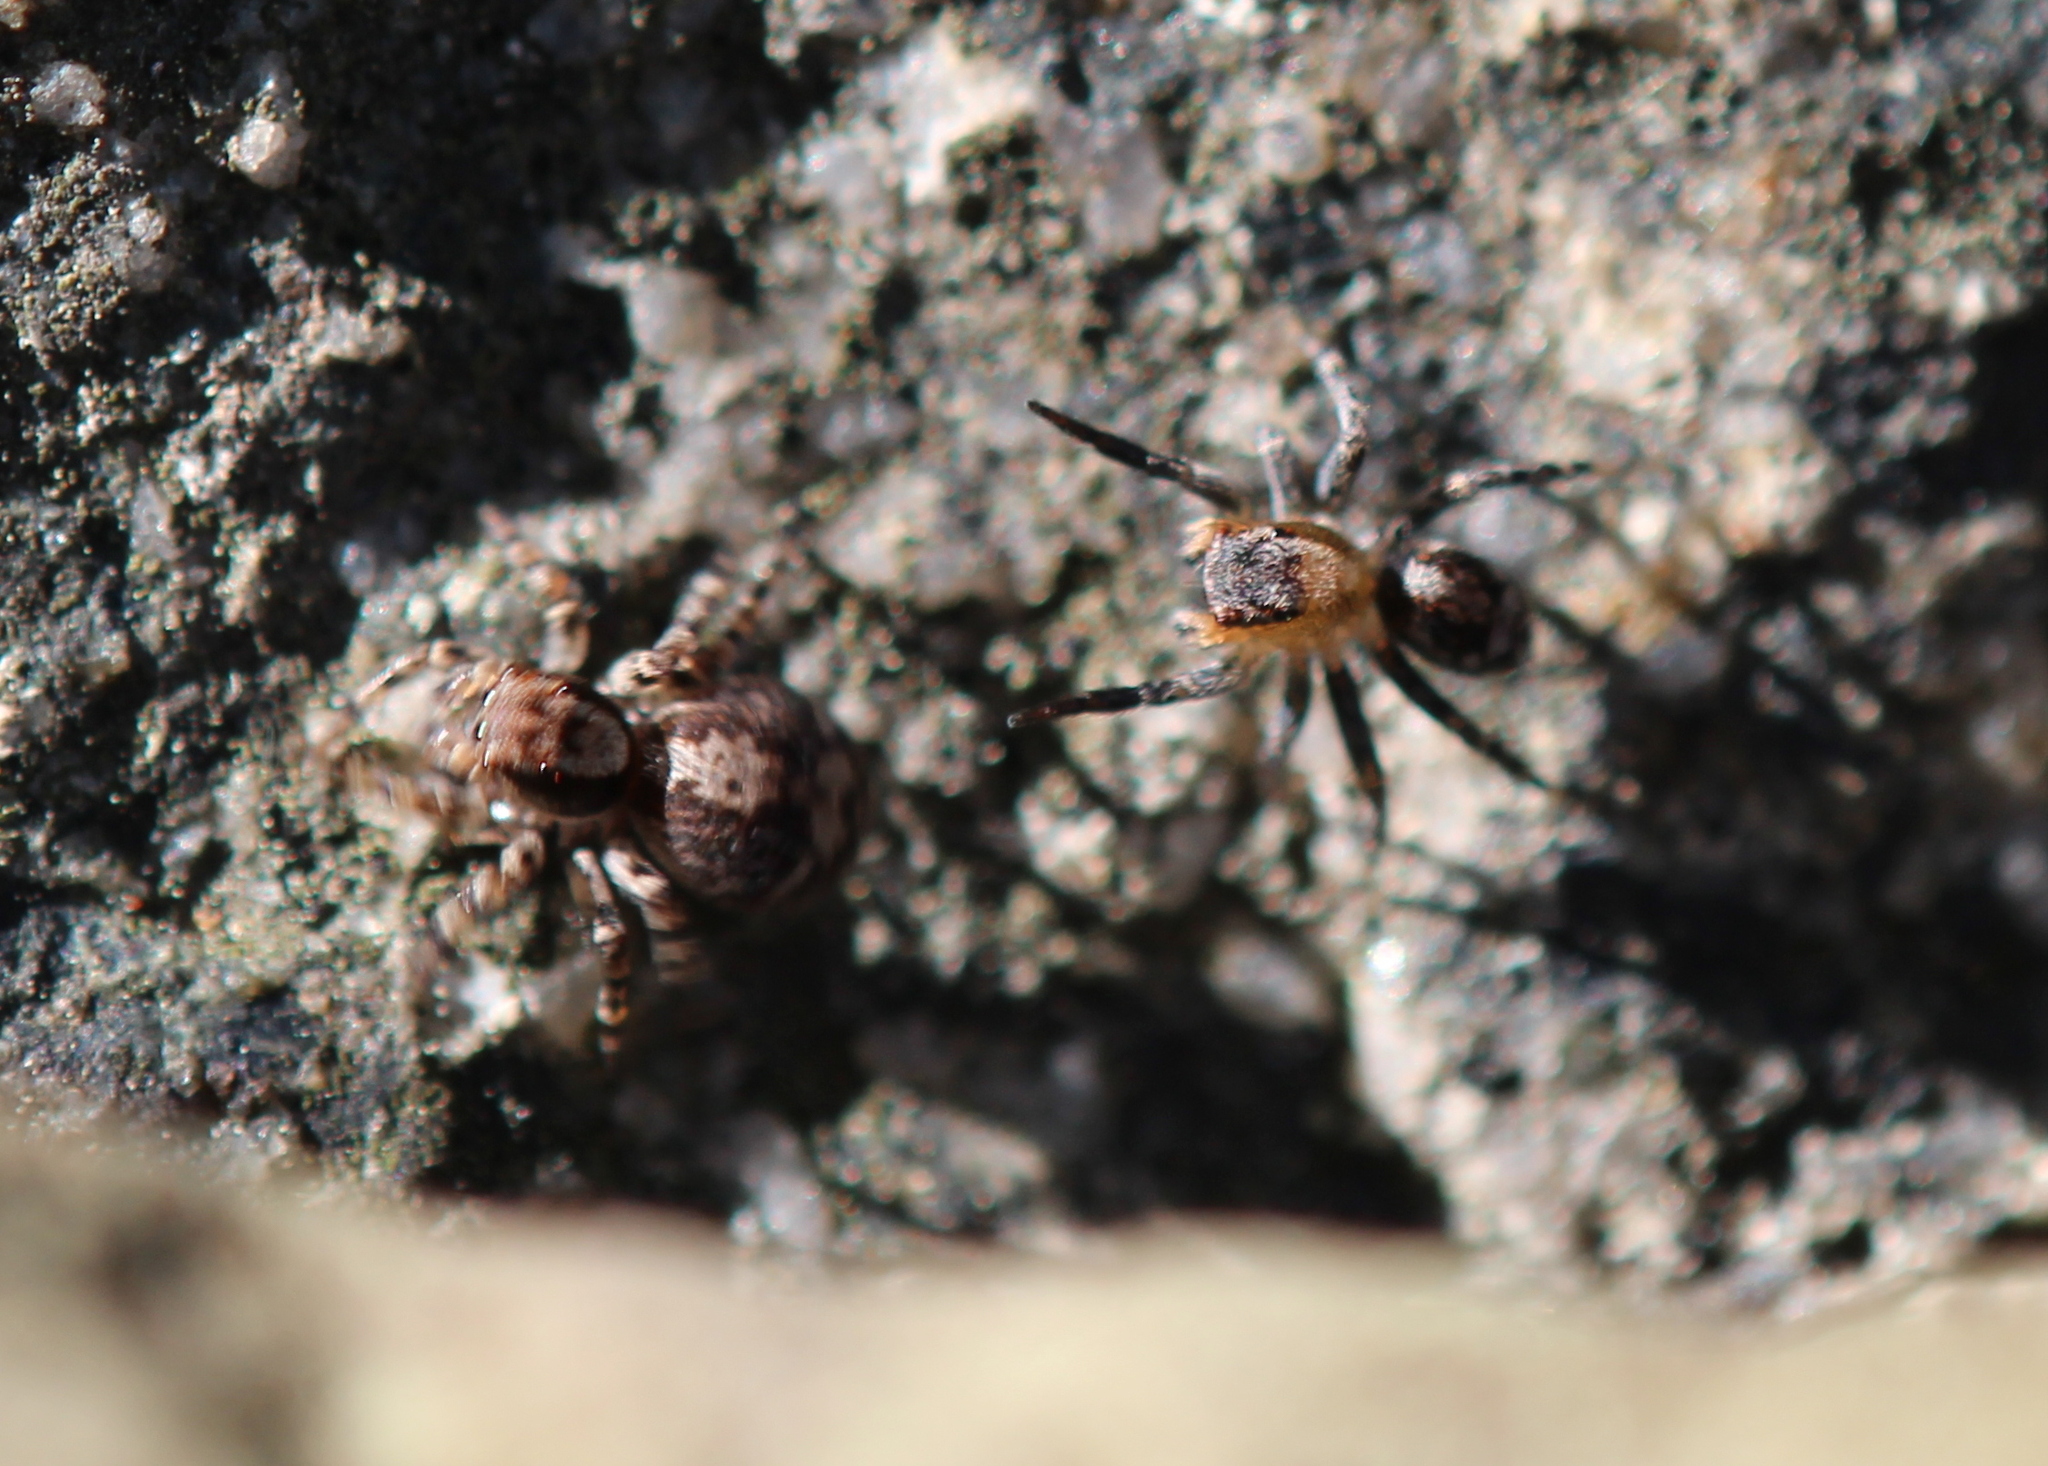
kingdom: Animalia
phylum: Arthropoda
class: Arachnida
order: Araneae
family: Salticidae
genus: Naphrys
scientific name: Naphrys pulex
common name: Flea jumping spider
